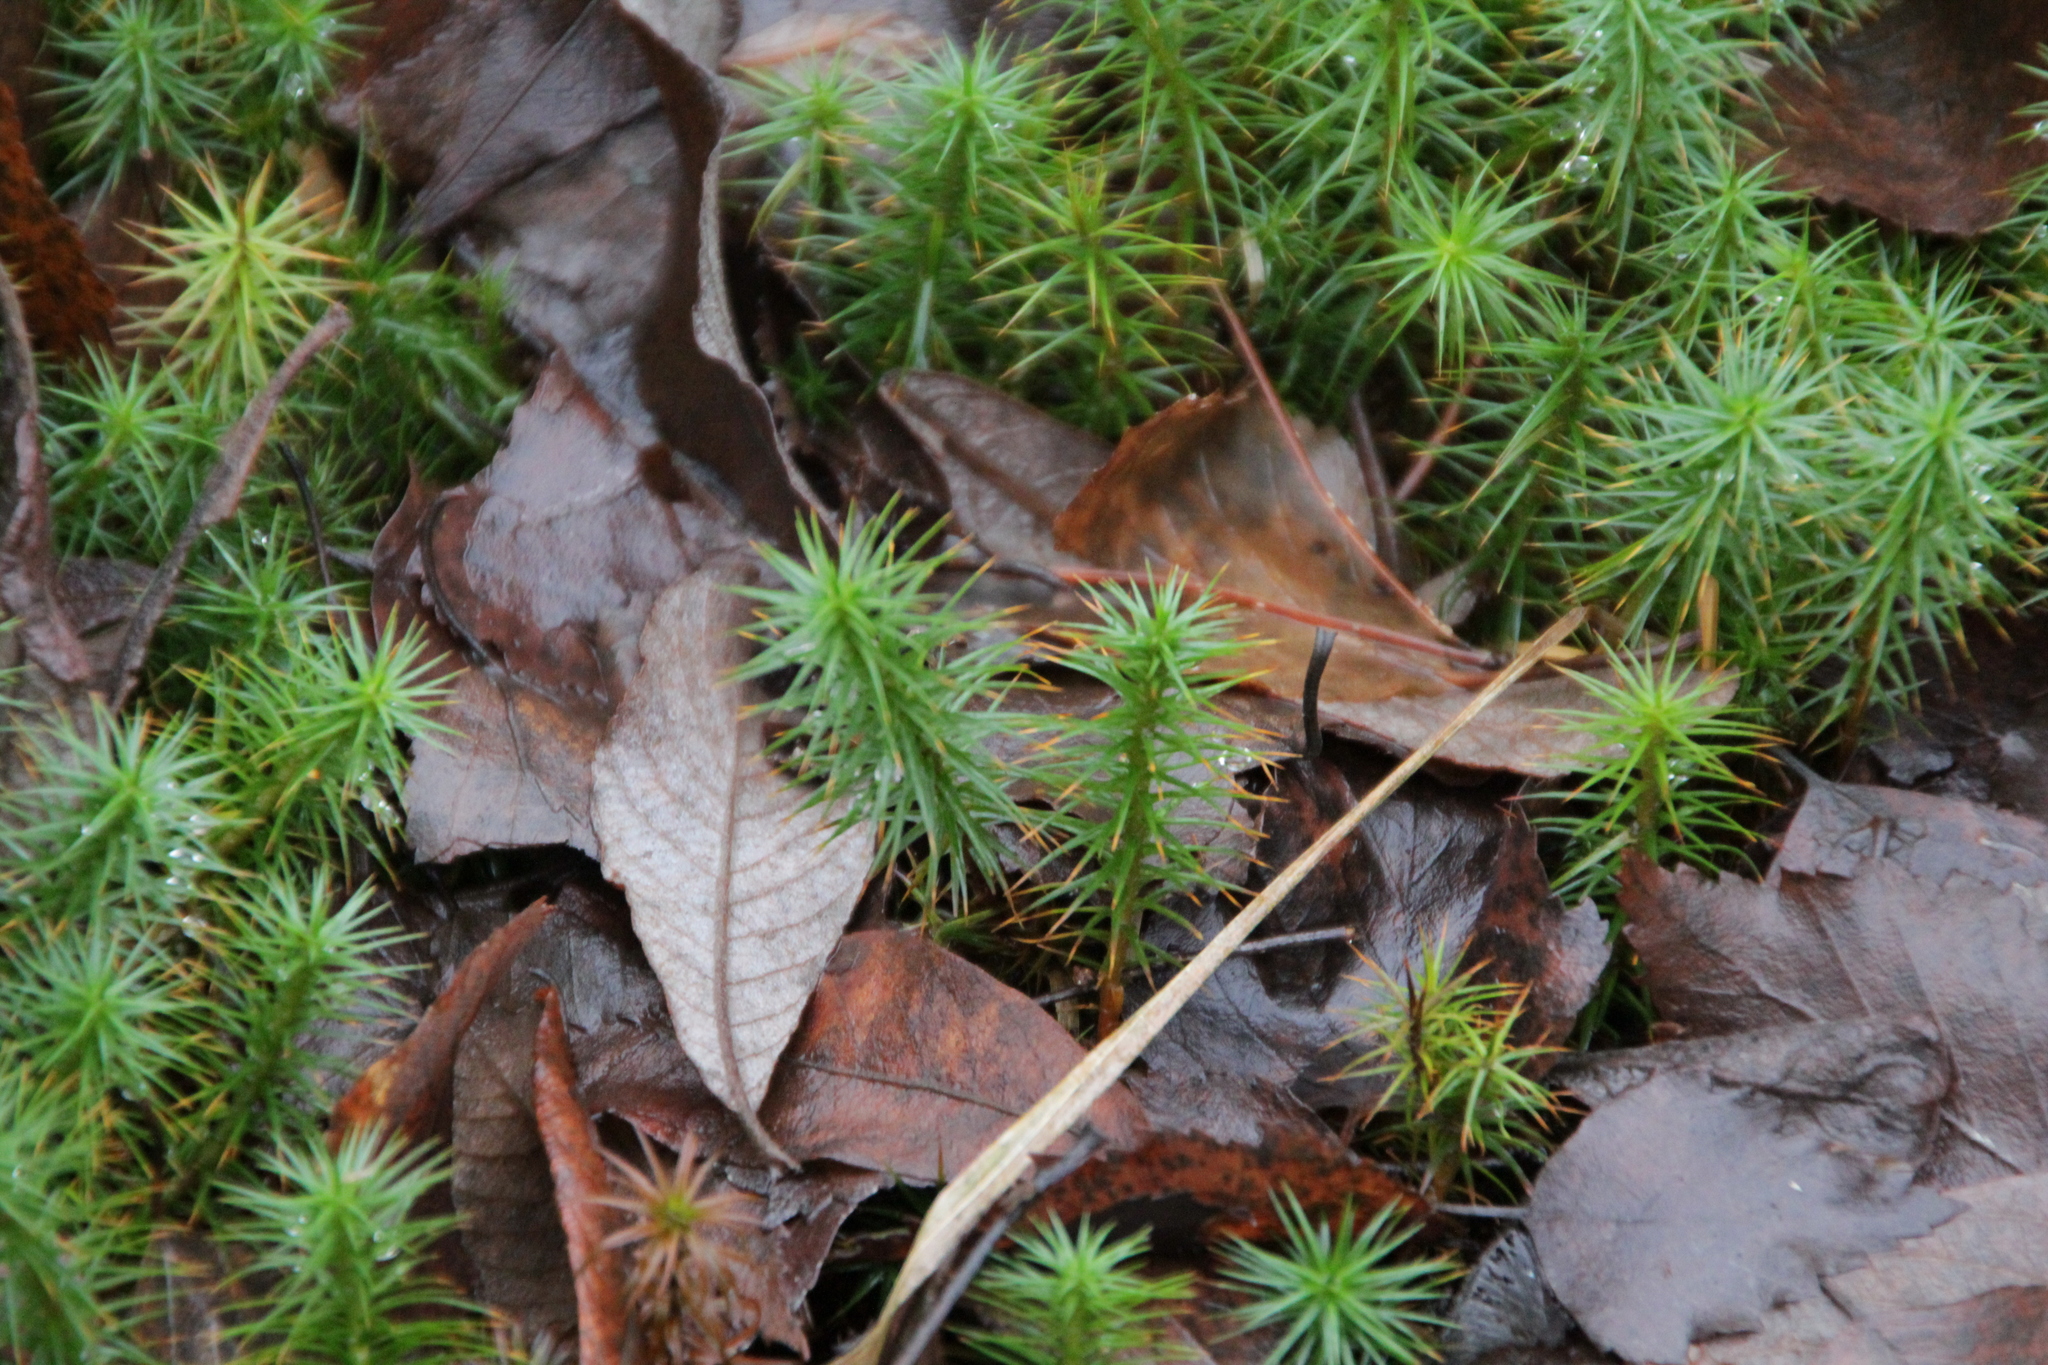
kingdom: Plantae
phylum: Bryophyta
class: Polytrichopsida
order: Polytrichales
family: Polytrichaceae
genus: Polytrichum
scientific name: Polytrichum commune
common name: Common haircap
